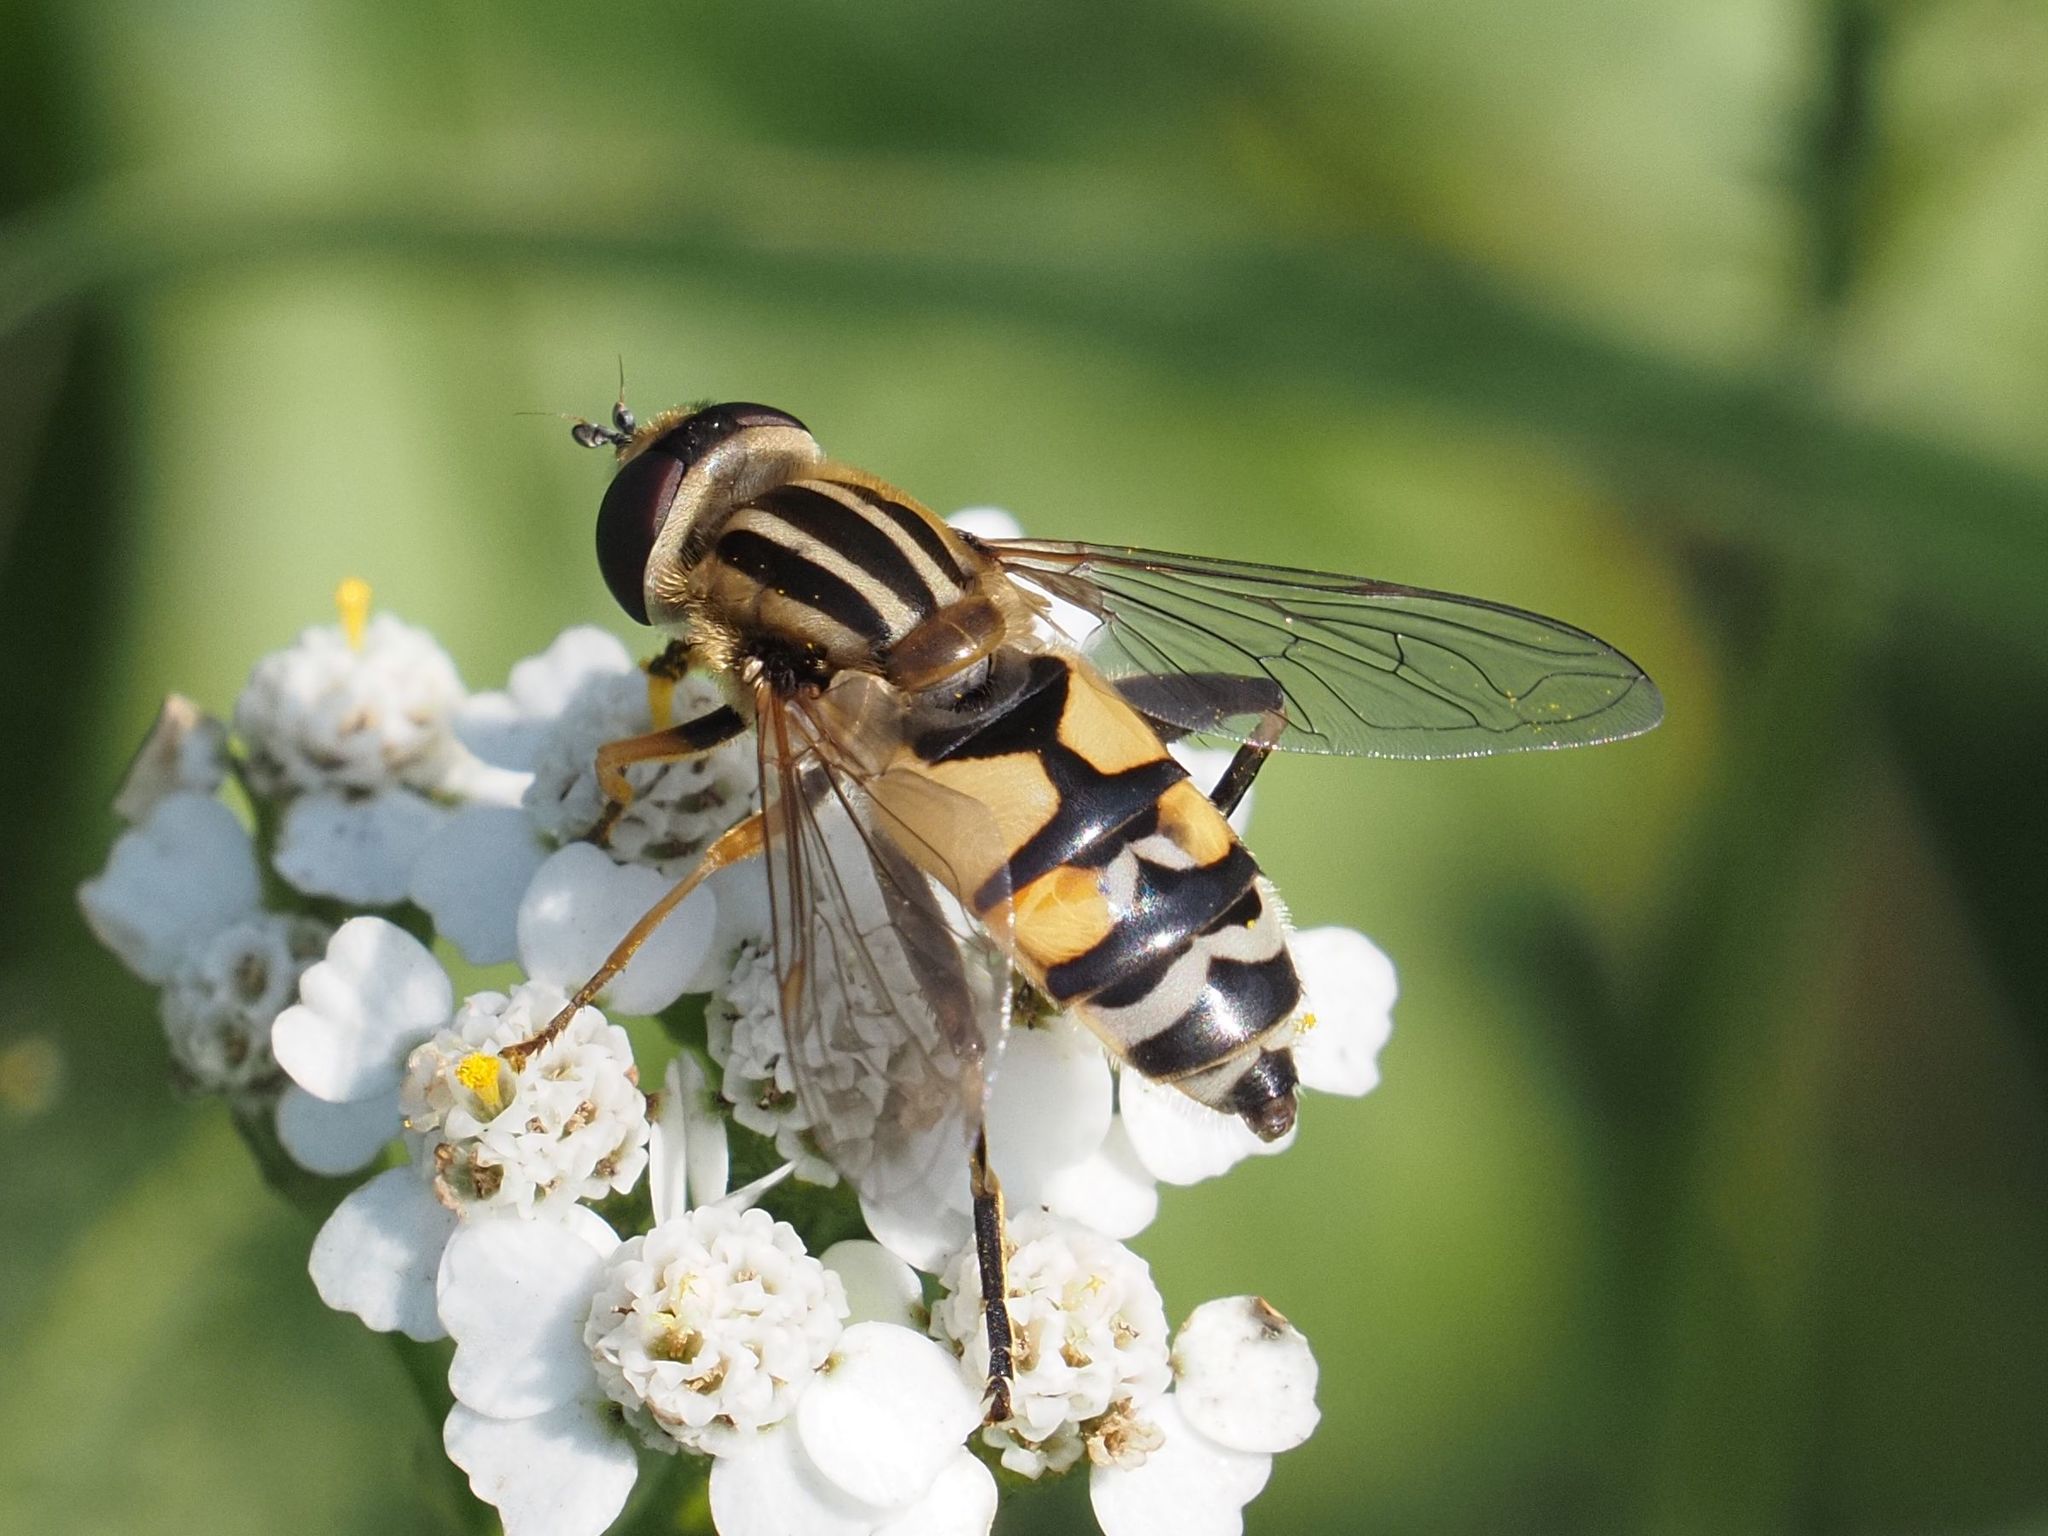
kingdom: Animalia
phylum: Arthropoda
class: Insecta
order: Diptera
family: Syrphidae
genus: Helophilus
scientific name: Helophilus trivittatus
